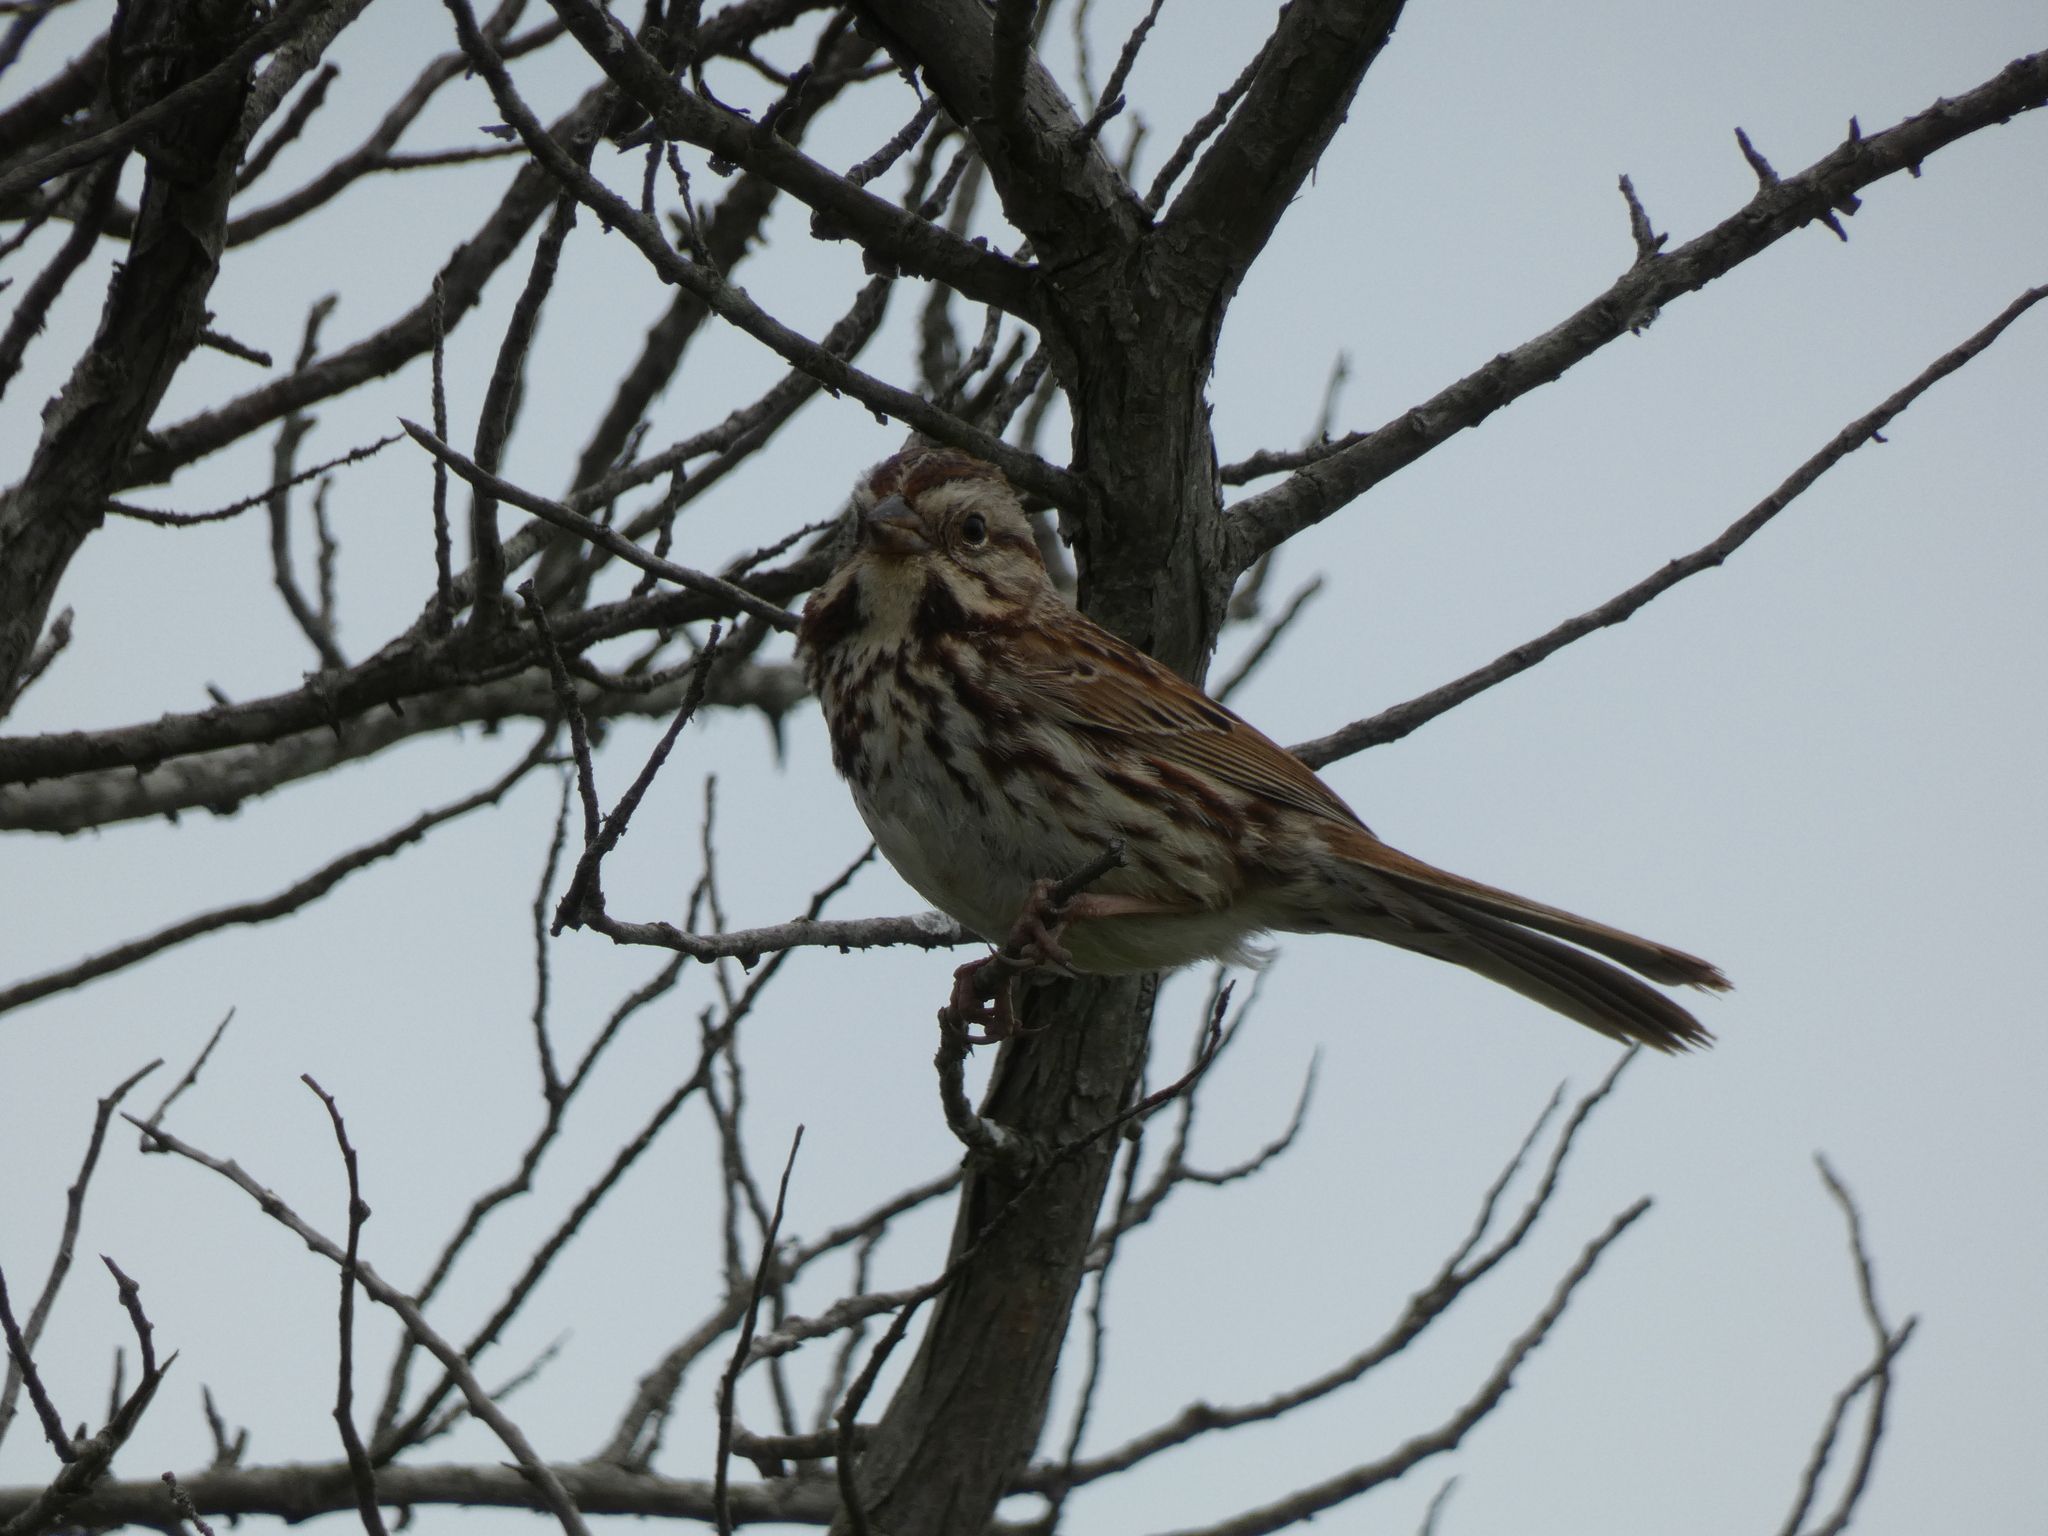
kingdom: Animalia
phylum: Chordata
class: Aves
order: Passeriformes
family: Passerellidae
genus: Melospiza
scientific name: Melospiza melodia
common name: Song sparrow
